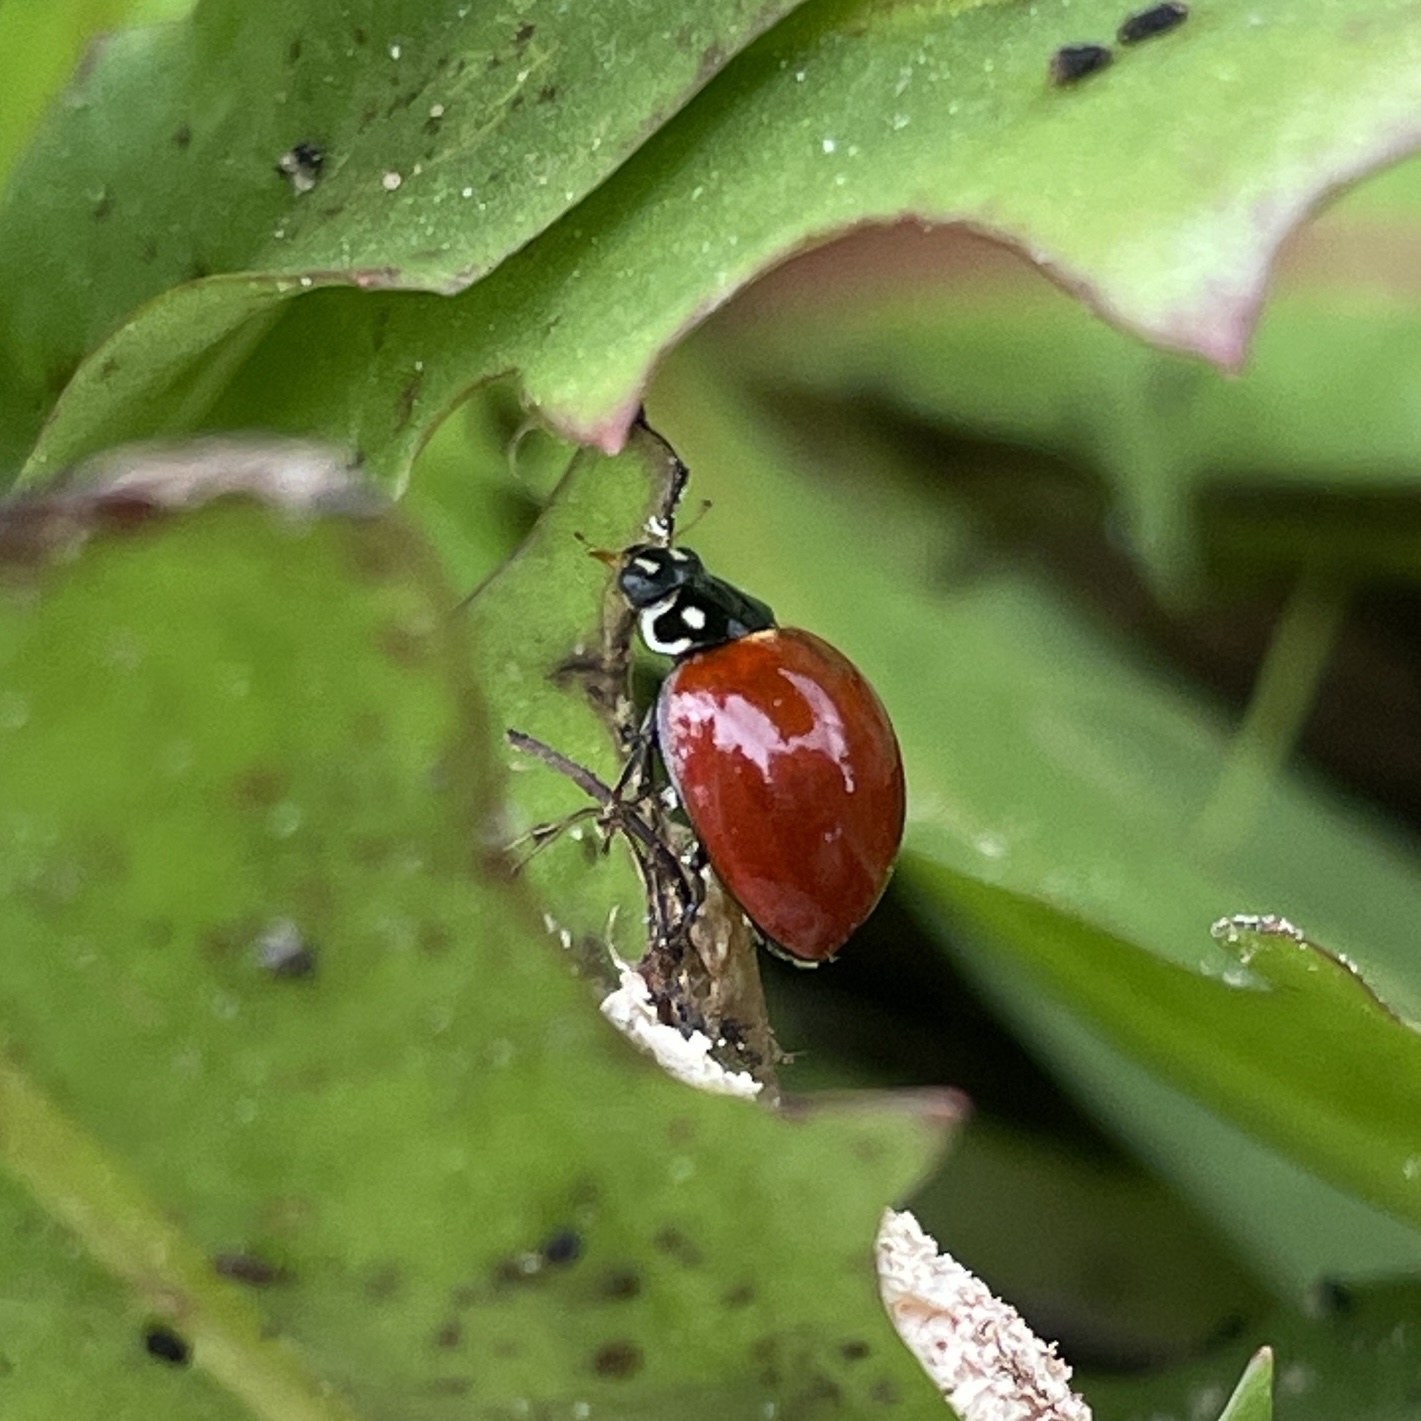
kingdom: Animalia
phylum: Arthropoda
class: Insecta
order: Coleoptera
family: Coccinellidae
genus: Cycloneda
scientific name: Cycloneda sanguinea
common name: Ladybird beetle
